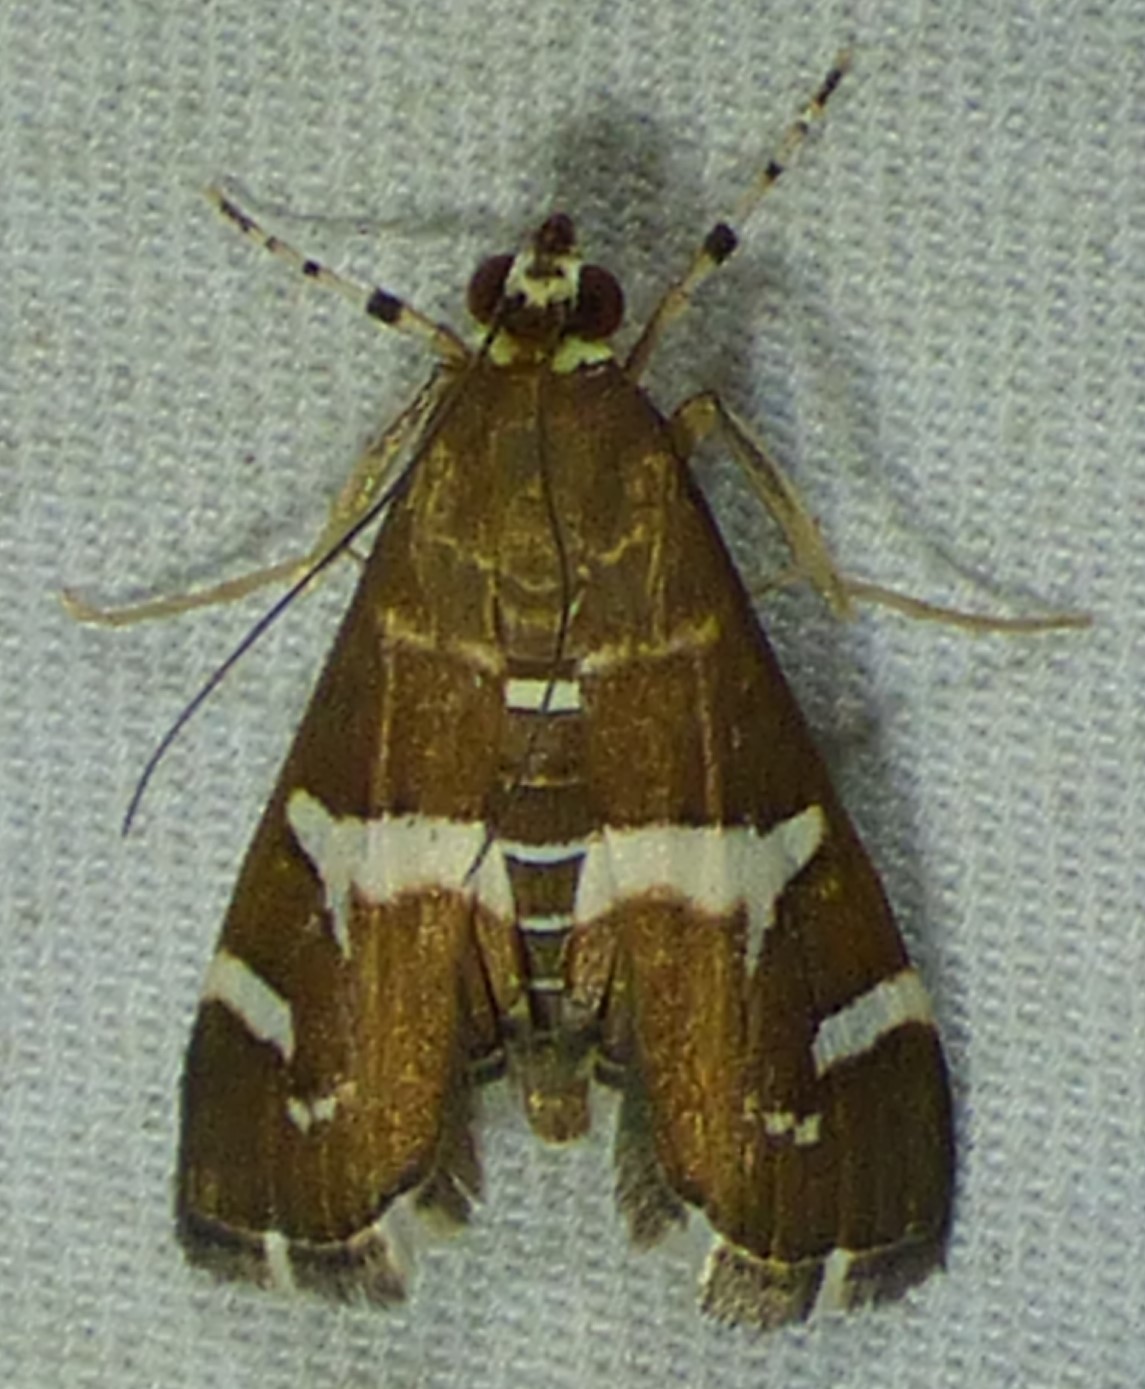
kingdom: Animalia
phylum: Arthropoda
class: Insecta
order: Lepidoptera
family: Crambidae
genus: Spoladea
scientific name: Spoladea recurvalis
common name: Beet webworm moth
